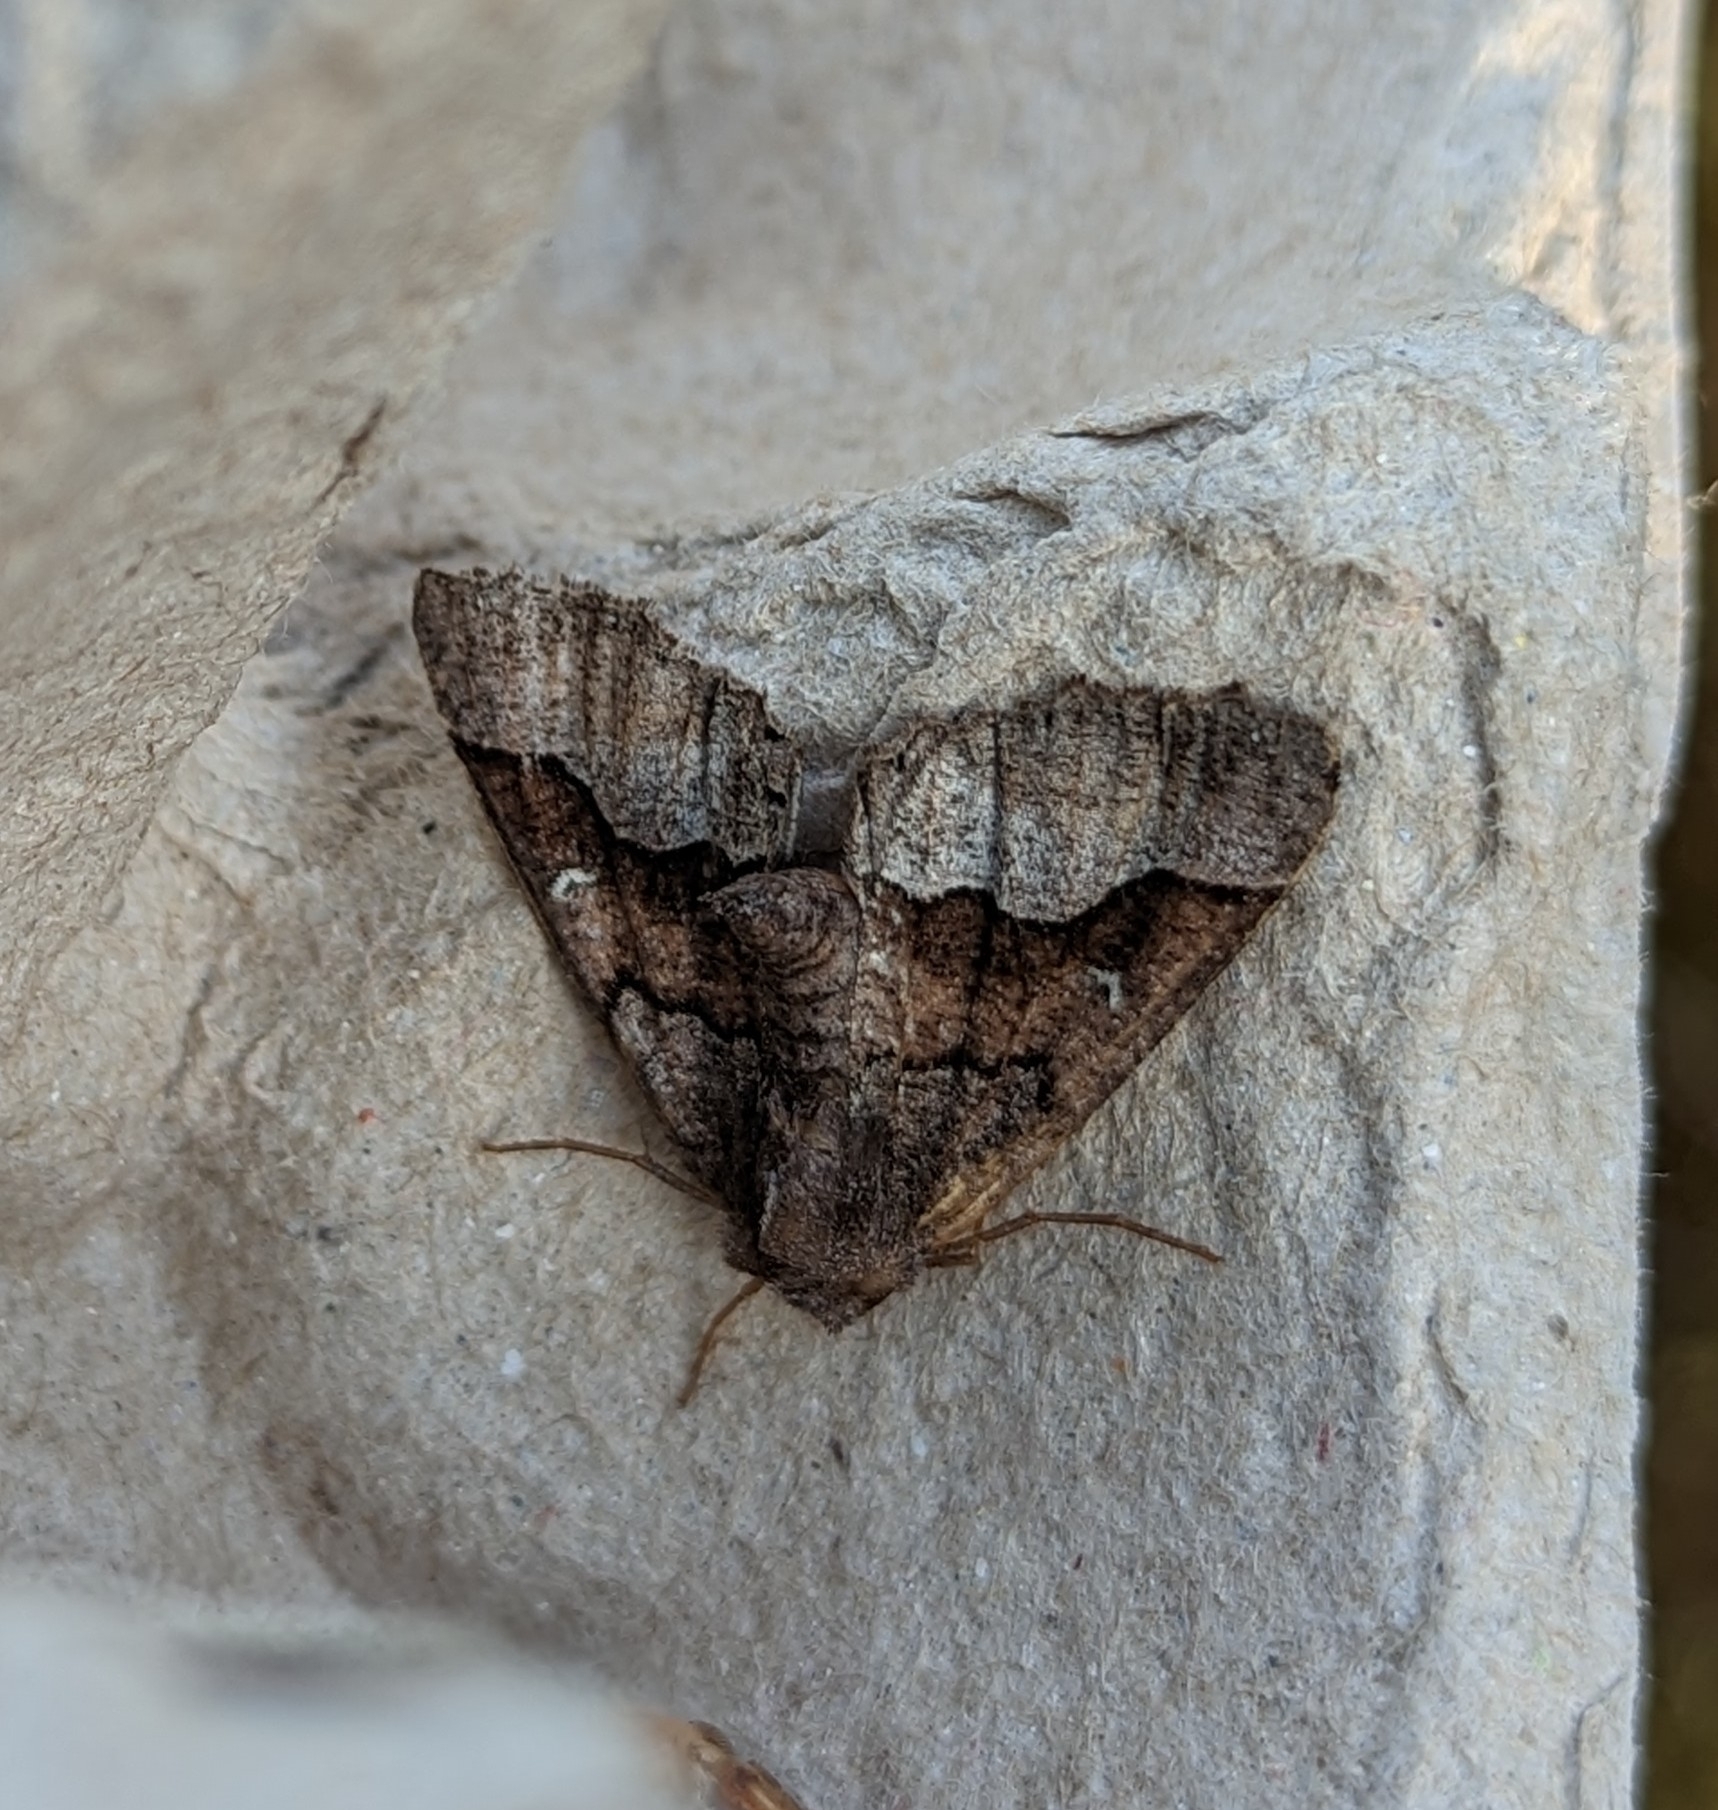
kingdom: Animalia
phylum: Arthropoda
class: Insecta
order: Lepidoptera
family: Geometridae
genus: Pero
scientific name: Pero behrensaria
